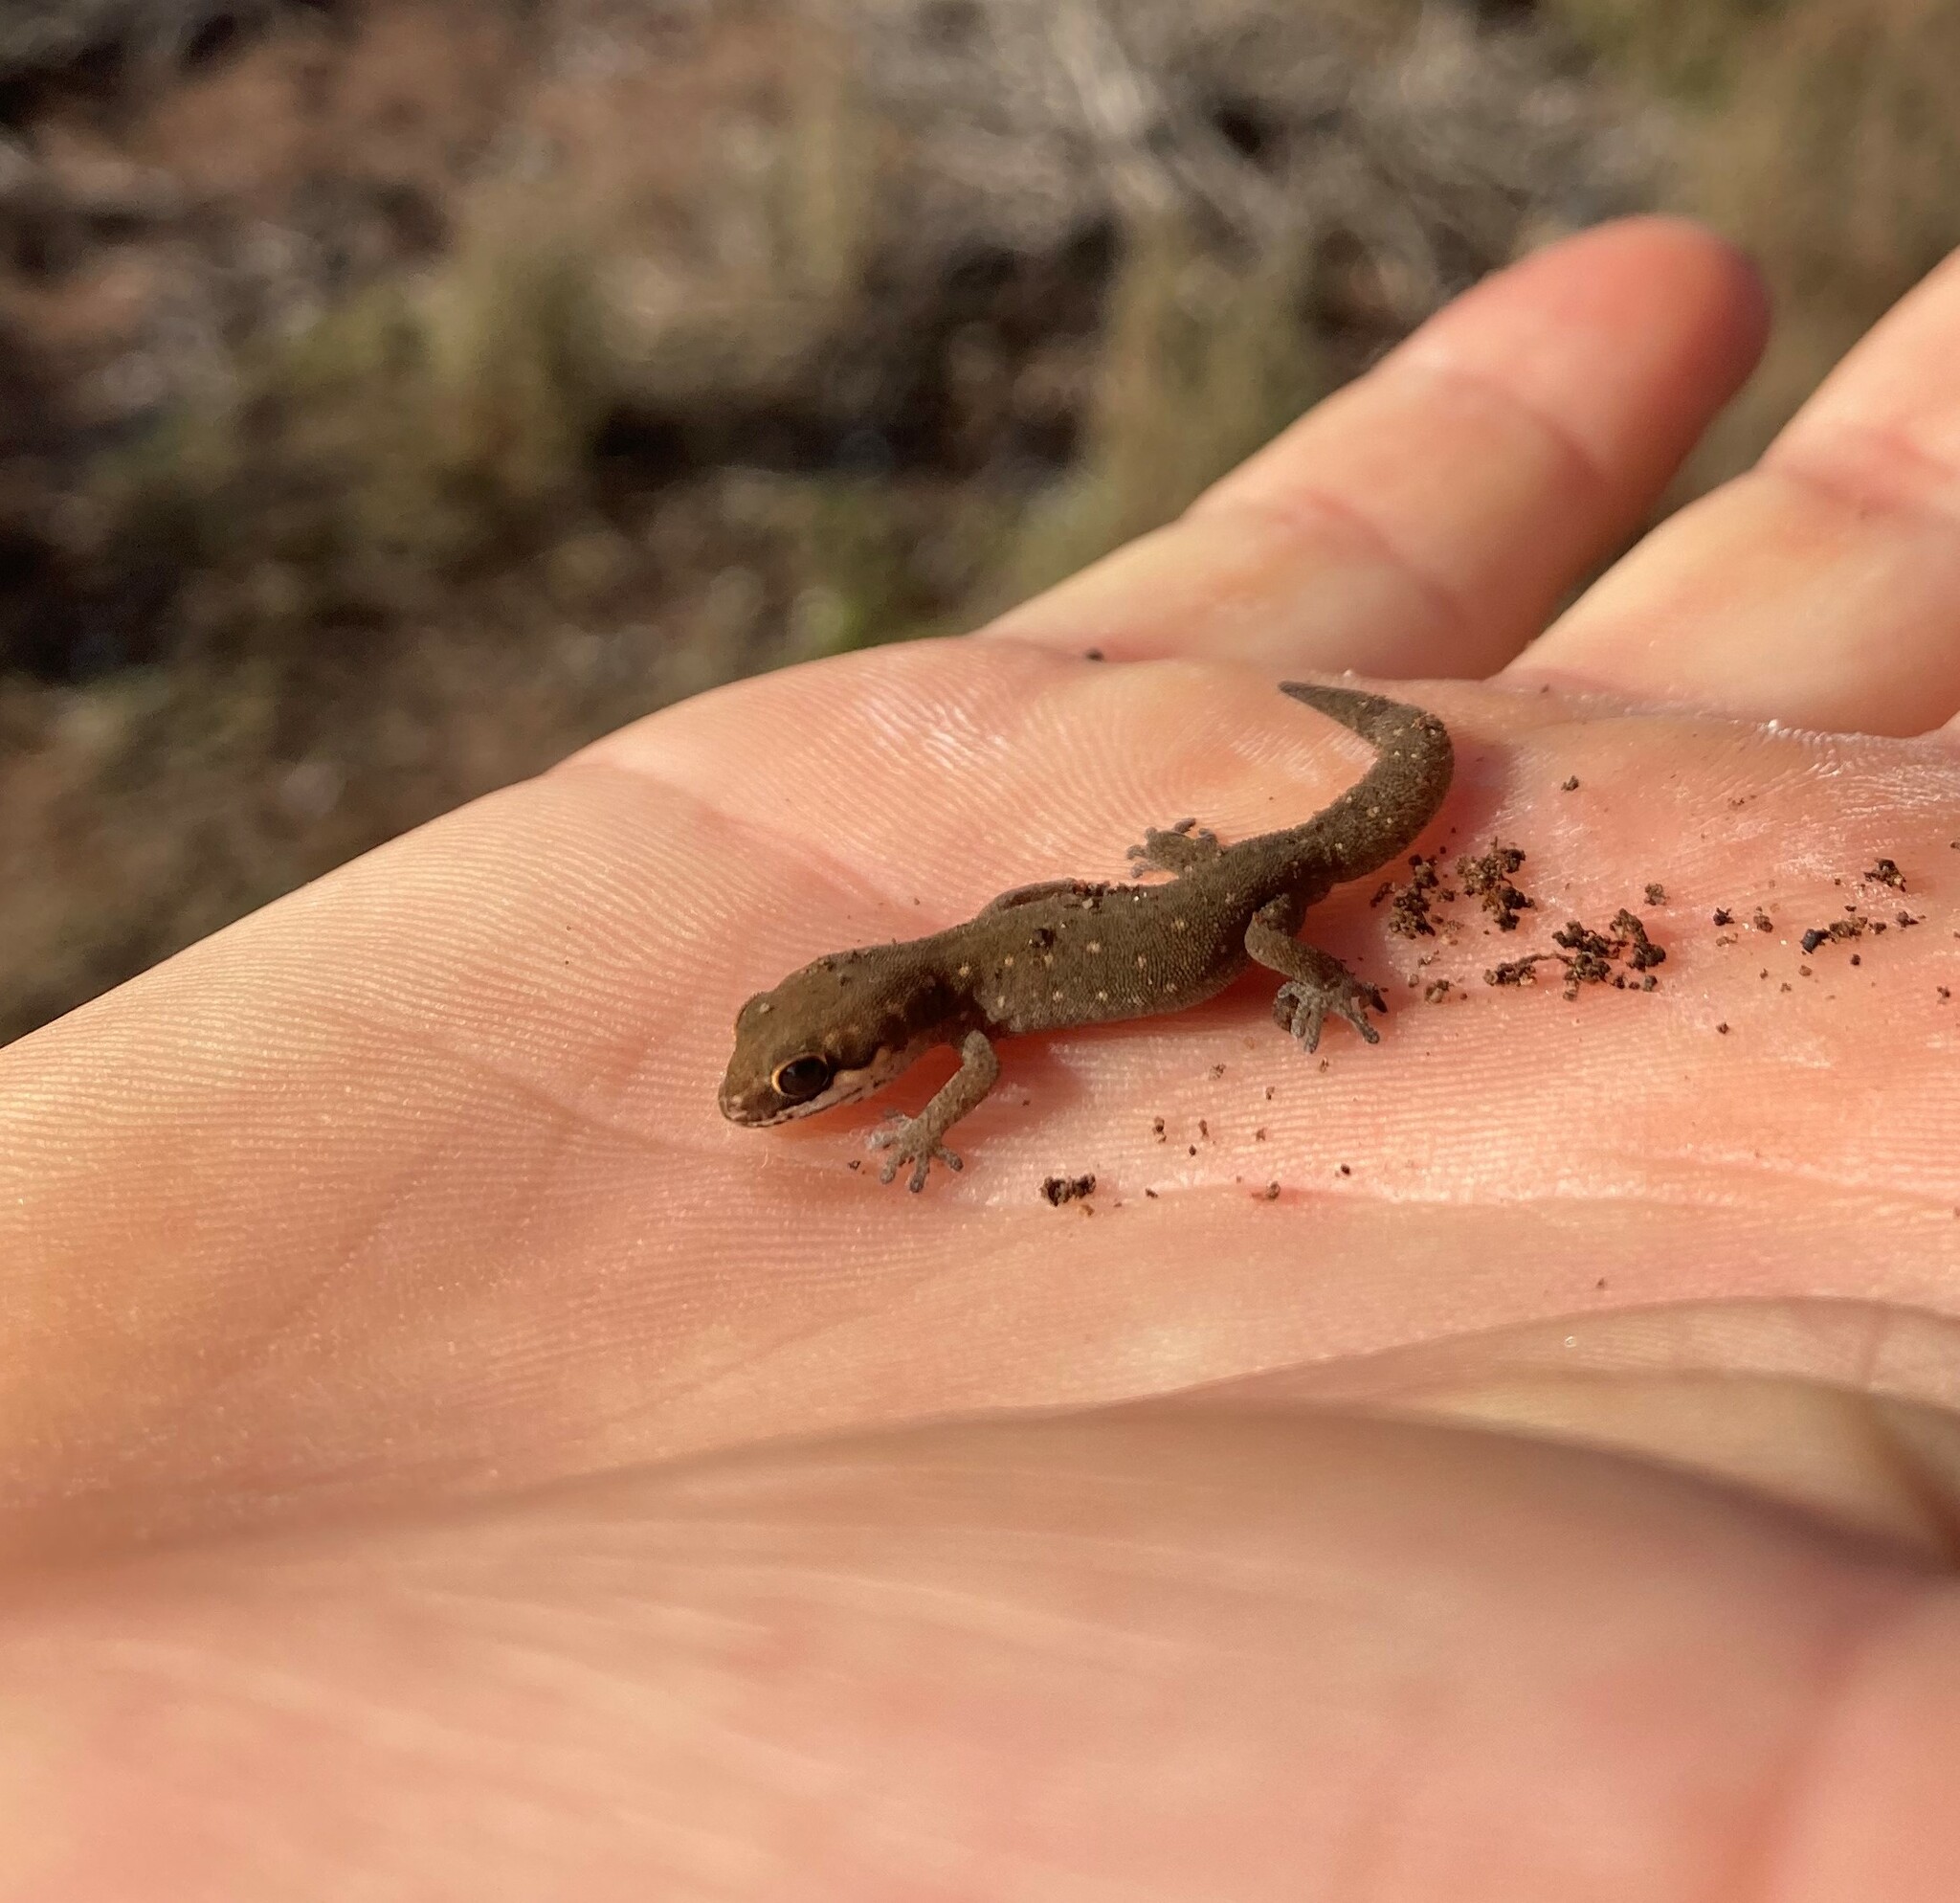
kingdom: Animalia
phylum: Chordata
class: Squamata
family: Gekkonidae
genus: Pachydactylus
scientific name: Pachydactylus geitje
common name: Ocellated thick-toed gecko
